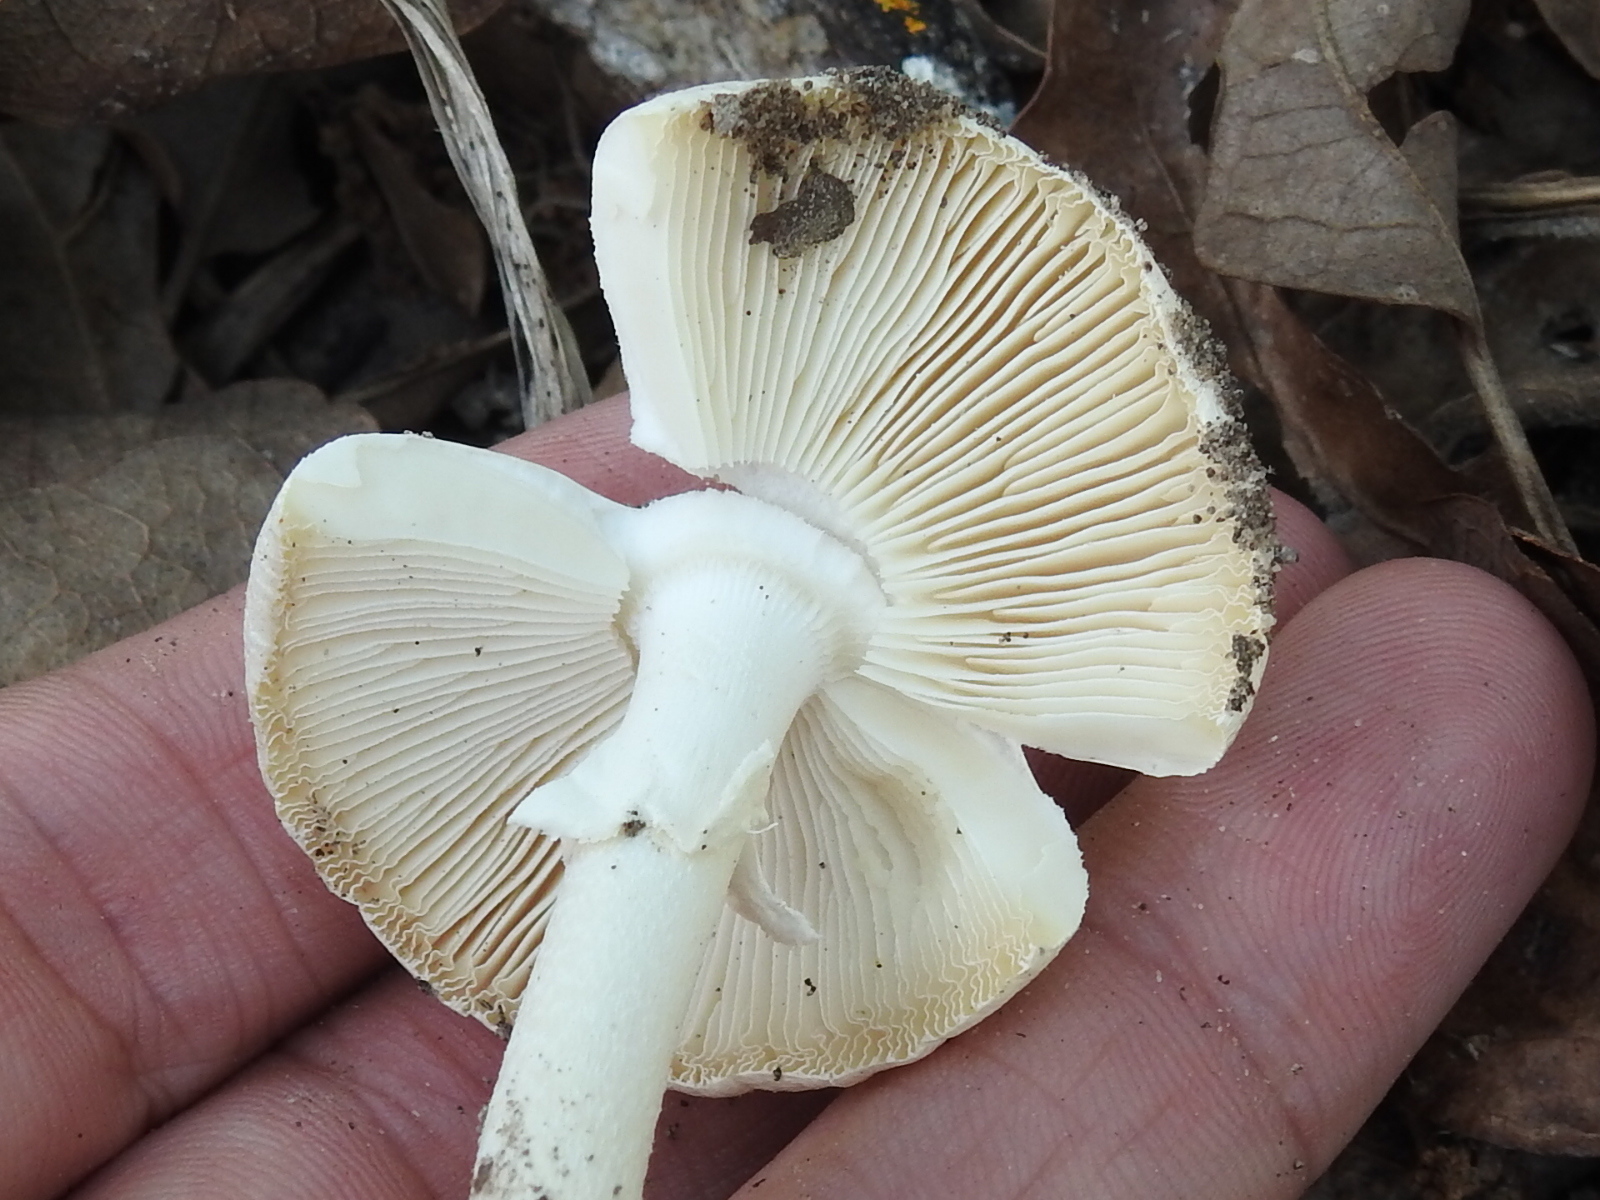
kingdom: Fungi
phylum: Basidiomycota
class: Agaricomycetes
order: Agaricales
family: Amanitaceae
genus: Amanita
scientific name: Amanita bisporigera
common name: Eastern north american destroying angel
